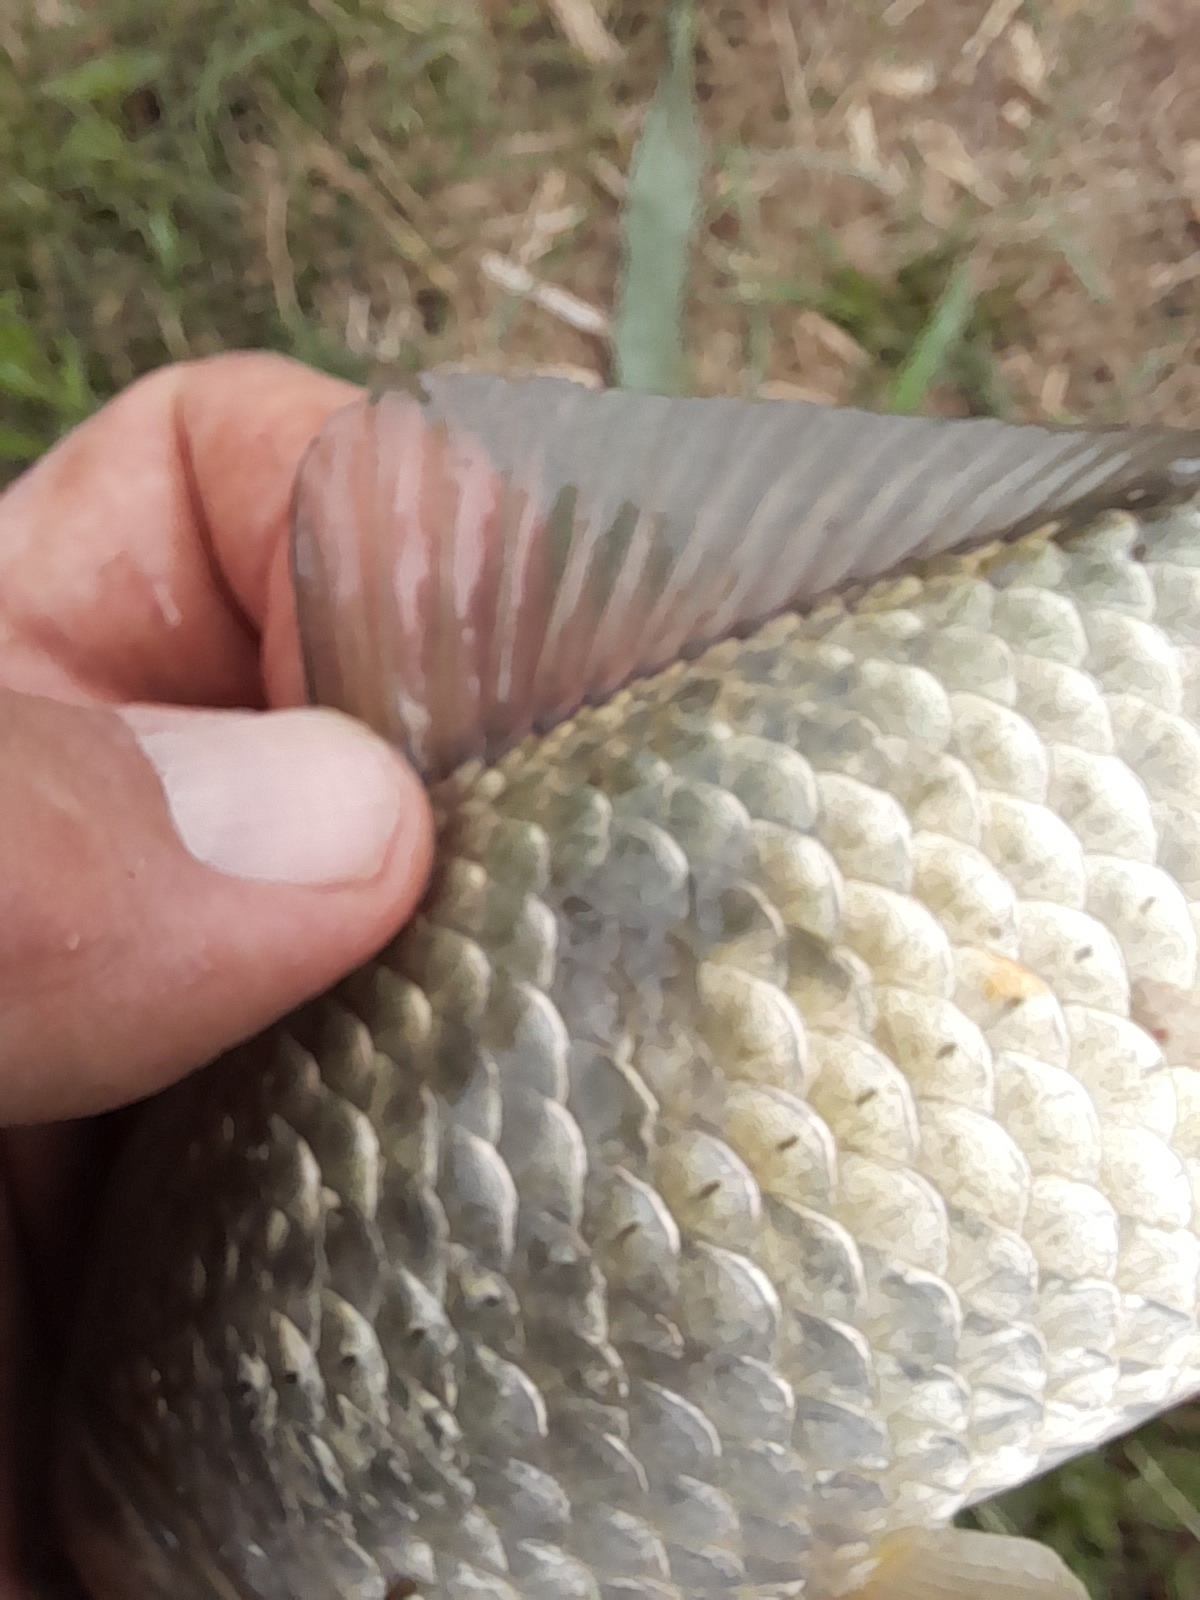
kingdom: Animalia
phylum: Chordata
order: Cypriniformes
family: Cyprinidae
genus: Carassius
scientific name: Carassius gibelio
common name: Prussian carp
